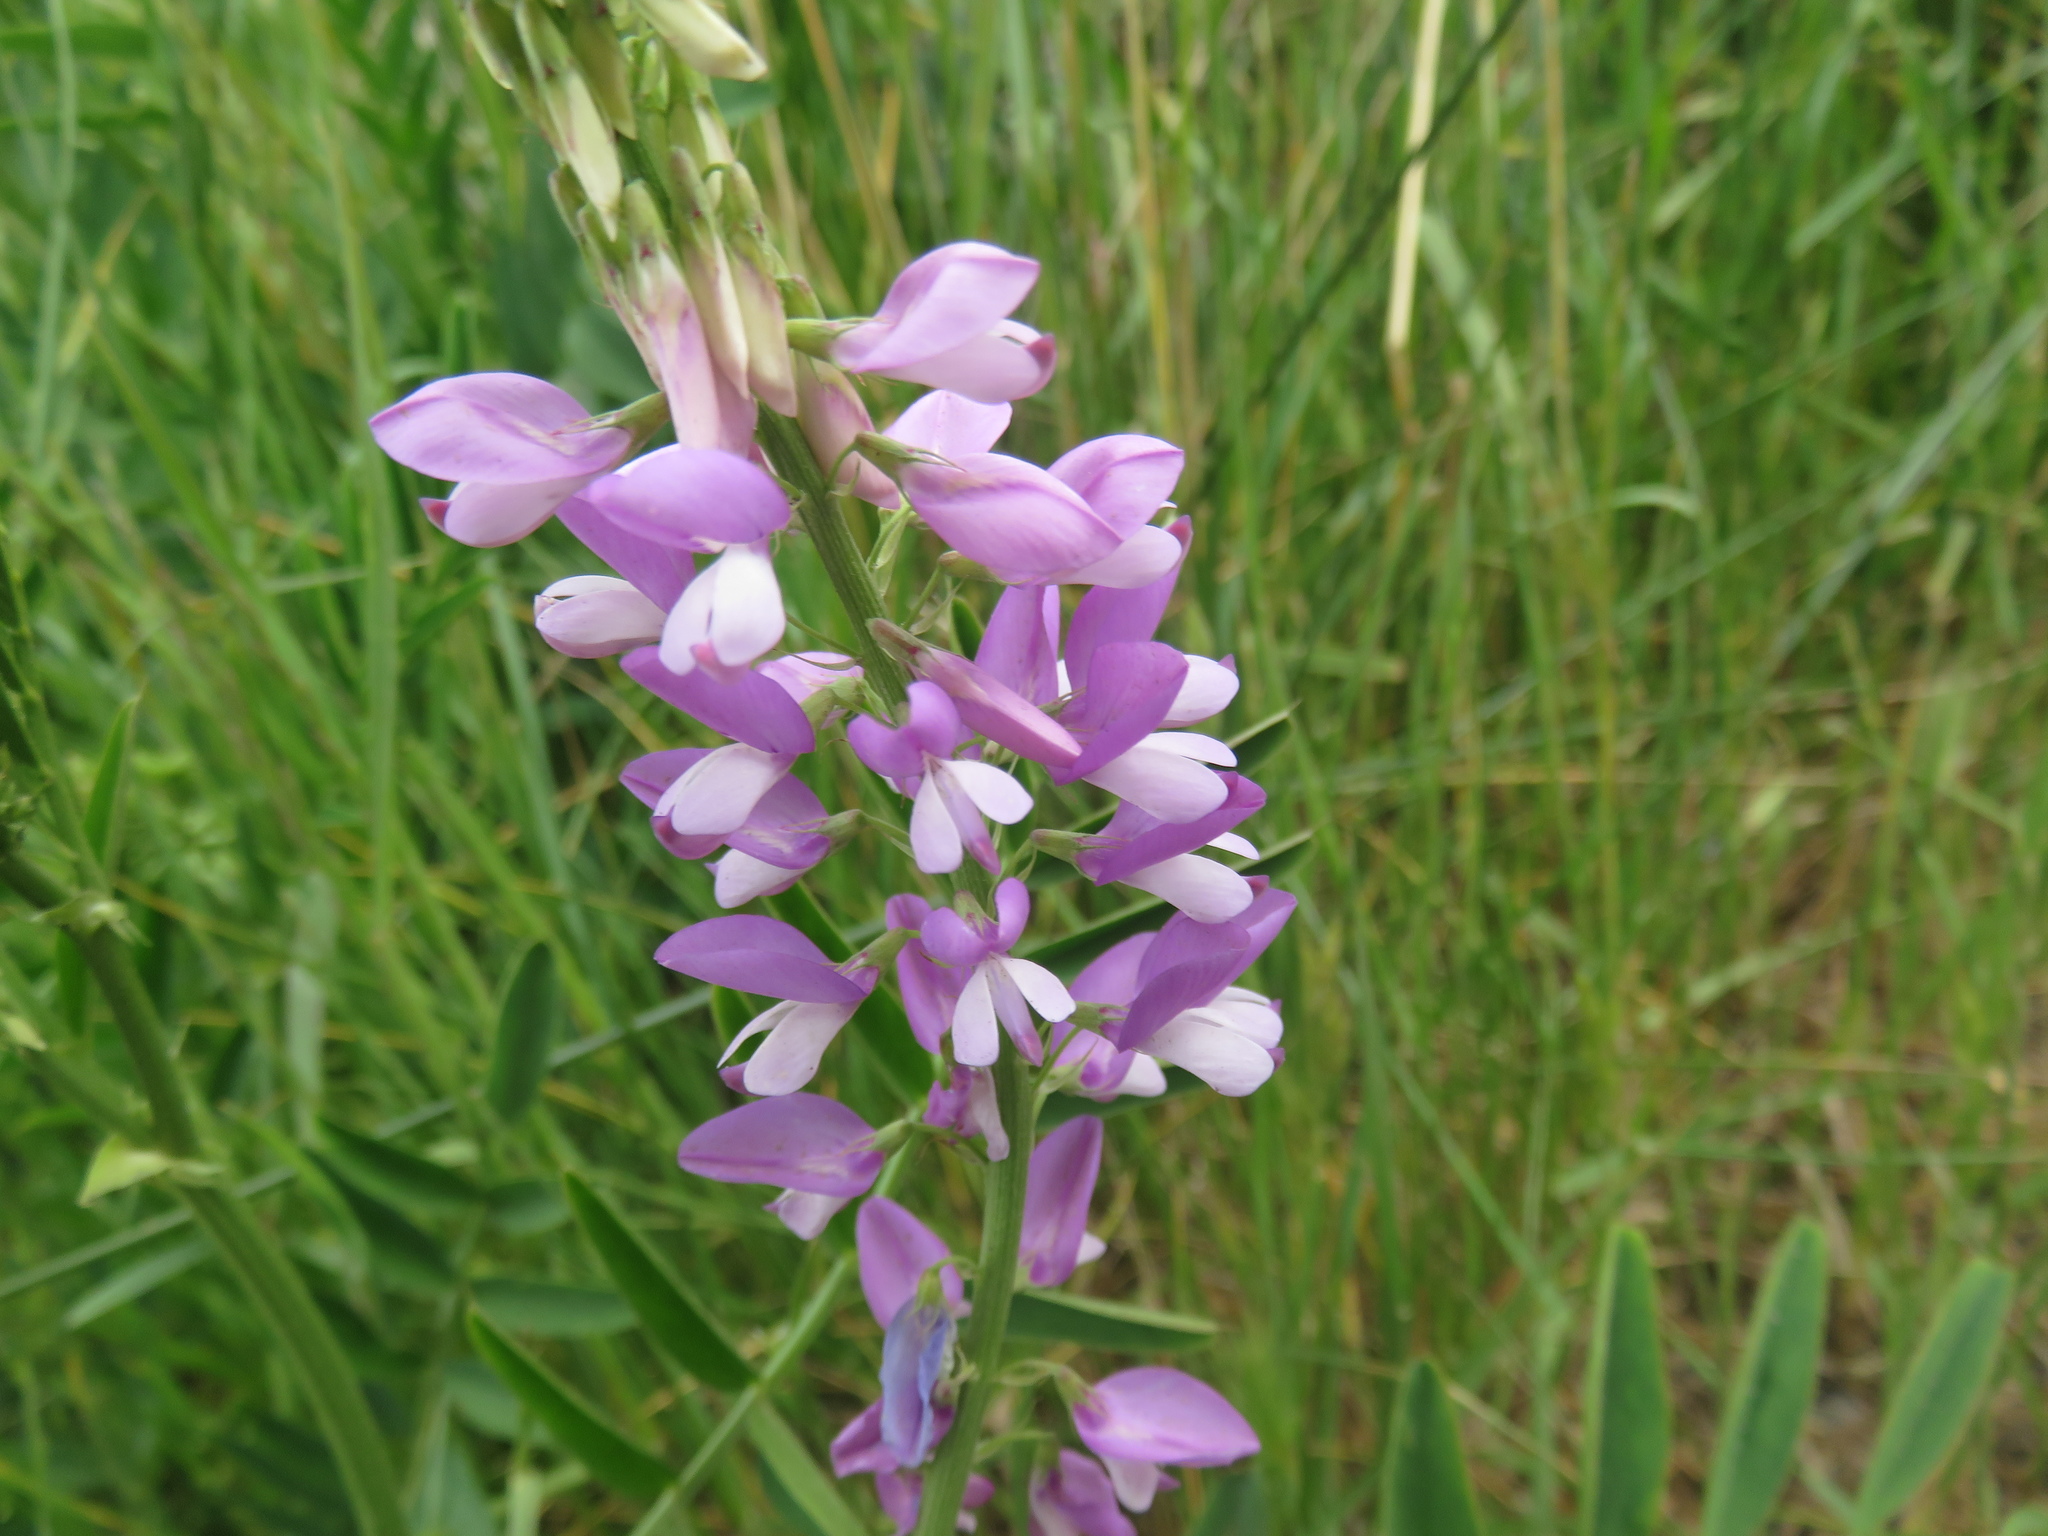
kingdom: Plantae
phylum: Tracheophyta
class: Magnoliopsida
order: Fabales
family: Fabaceae
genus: Galega
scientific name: Galega officinalis
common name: Goat's-rue
